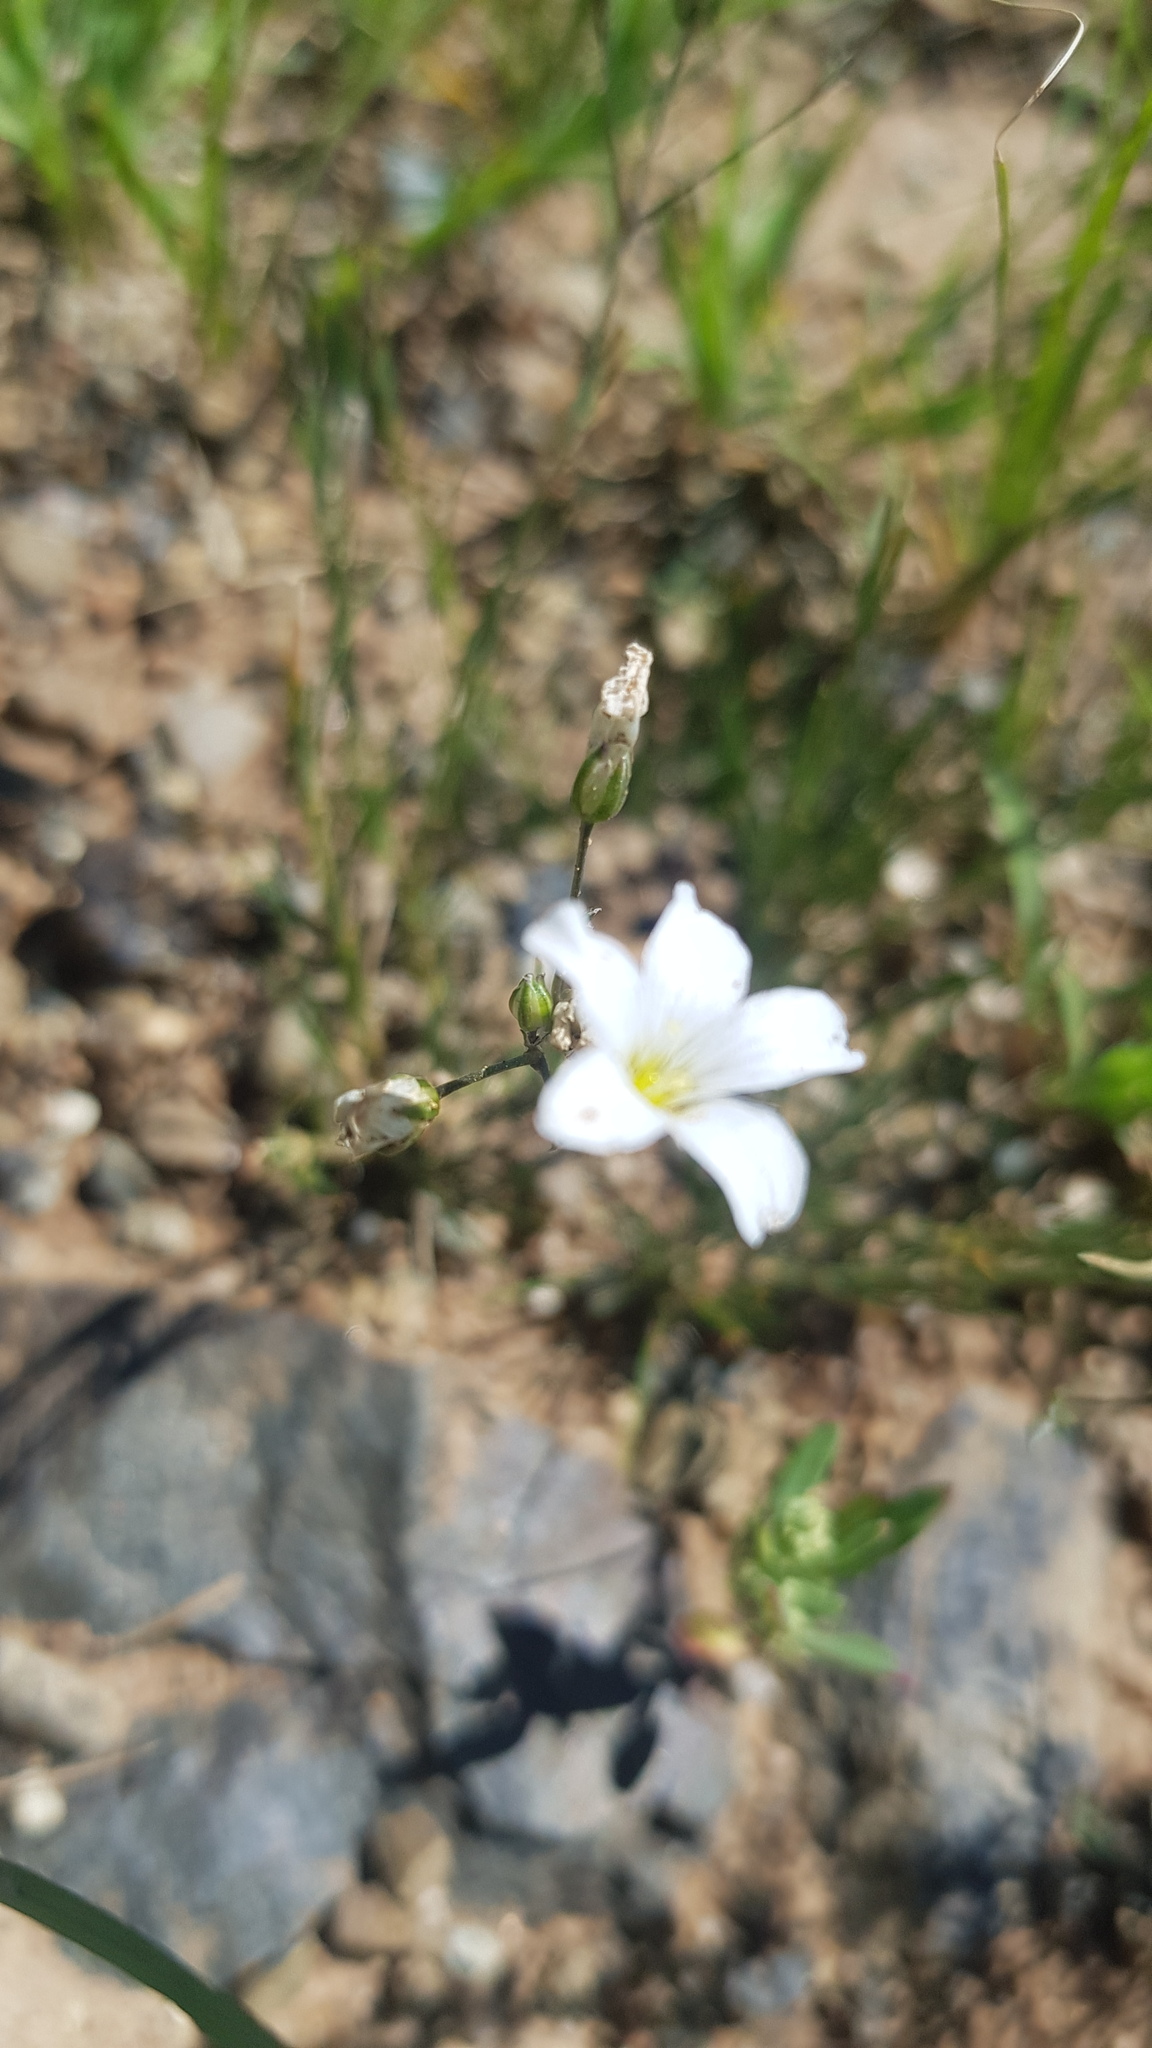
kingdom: Plantae
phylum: Tracheophyta
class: Magnoliopsida
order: Caryophyllales
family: Caryophyllaceae
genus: Eremogone
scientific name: Eremogone capillaris
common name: Slender mountain sandwort
